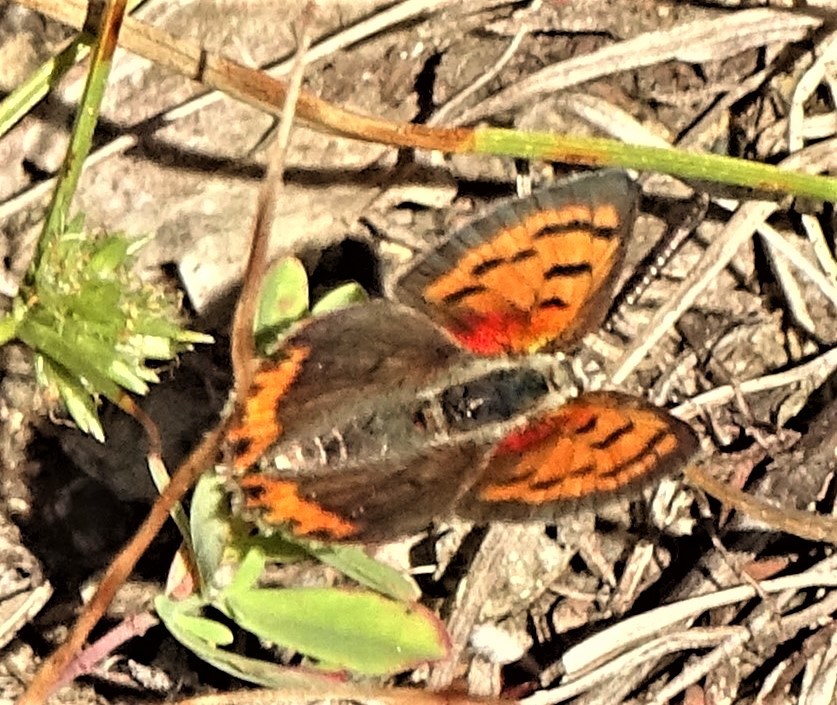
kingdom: Animalia
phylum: Arthropoda
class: Insecta
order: Lepidoptera
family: Lycaenidae
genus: Lycaena
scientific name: Lycaena hypophlaeas
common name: American copper
